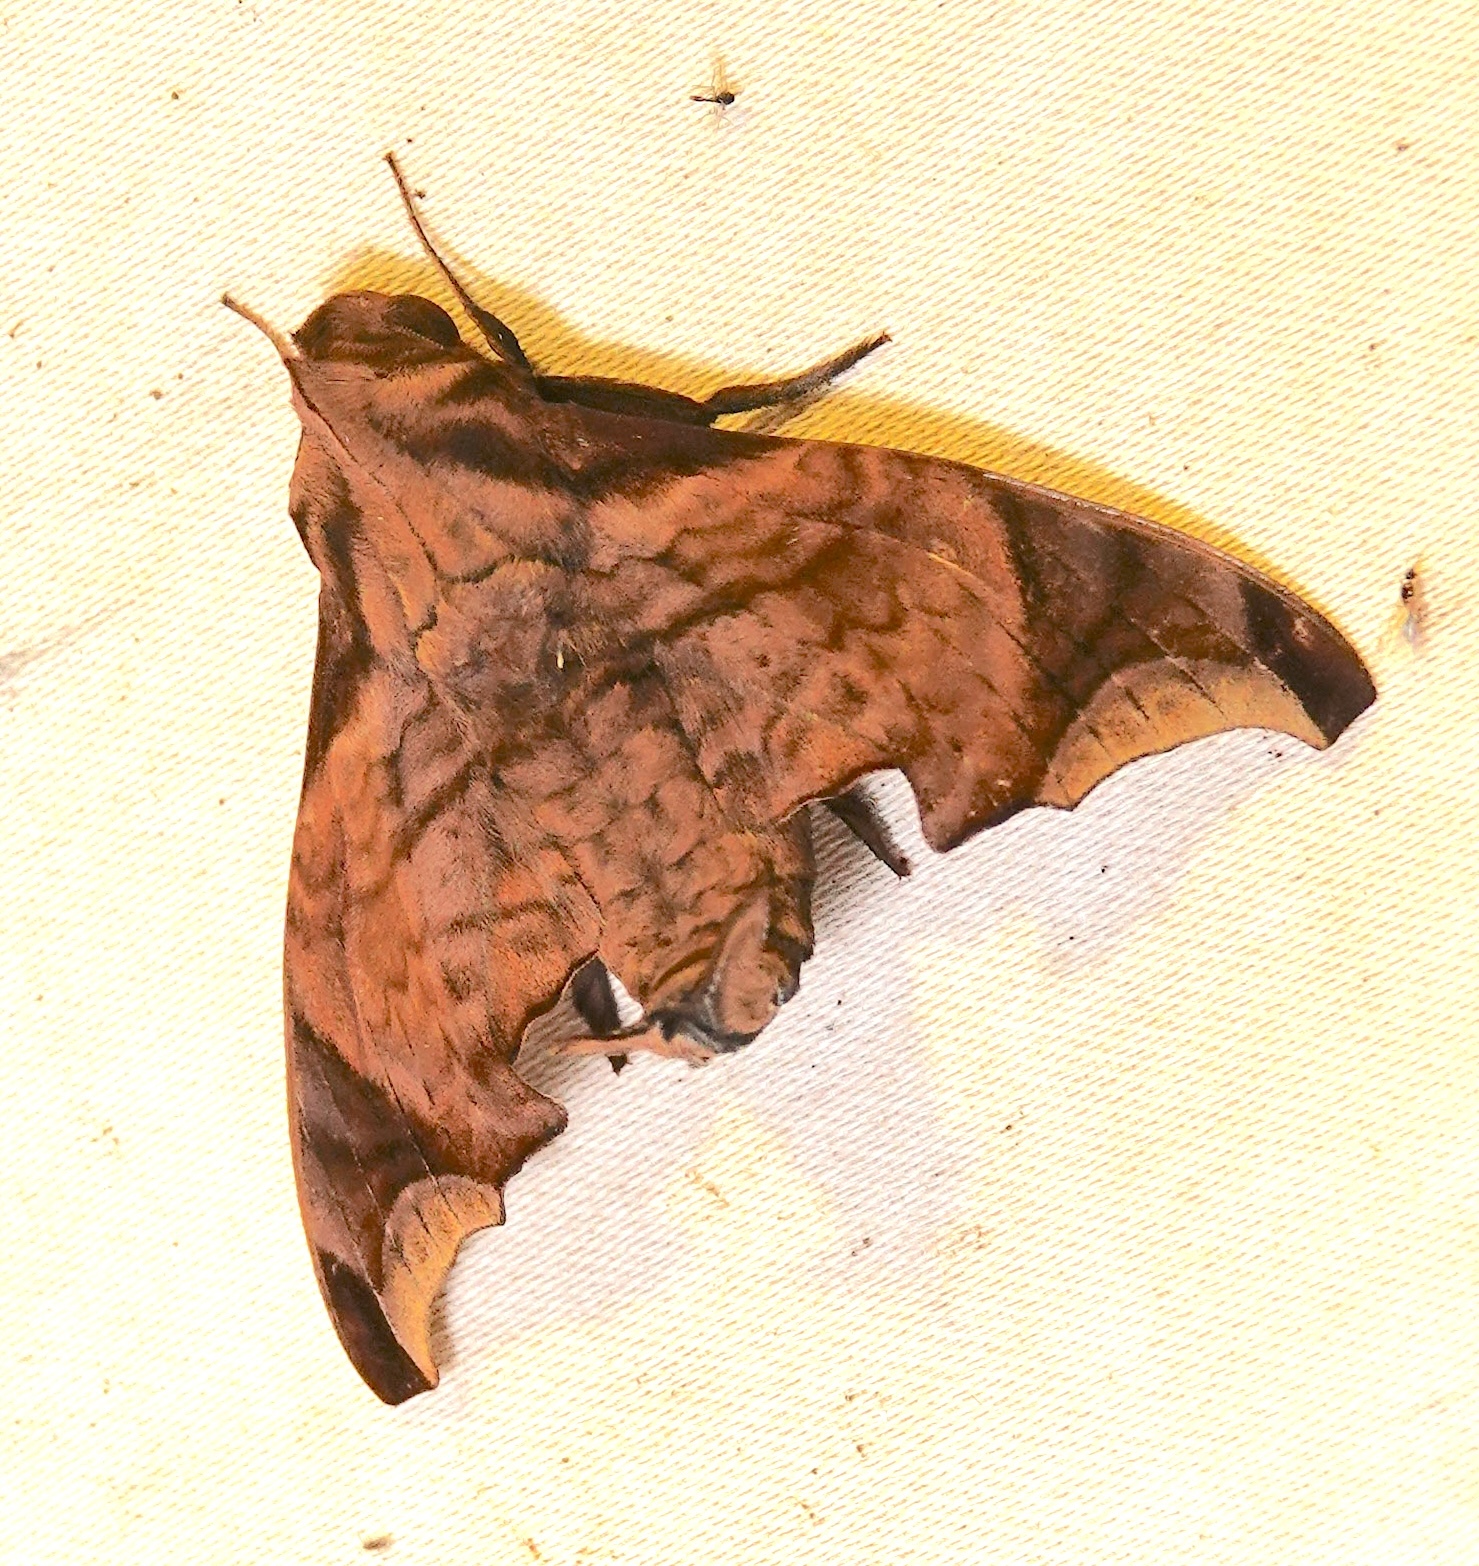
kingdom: Animalia
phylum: Arthropoda
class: Insecta
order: Lepidoptera
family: Sphingidae
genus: Enyo
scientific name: Enyo taedium
